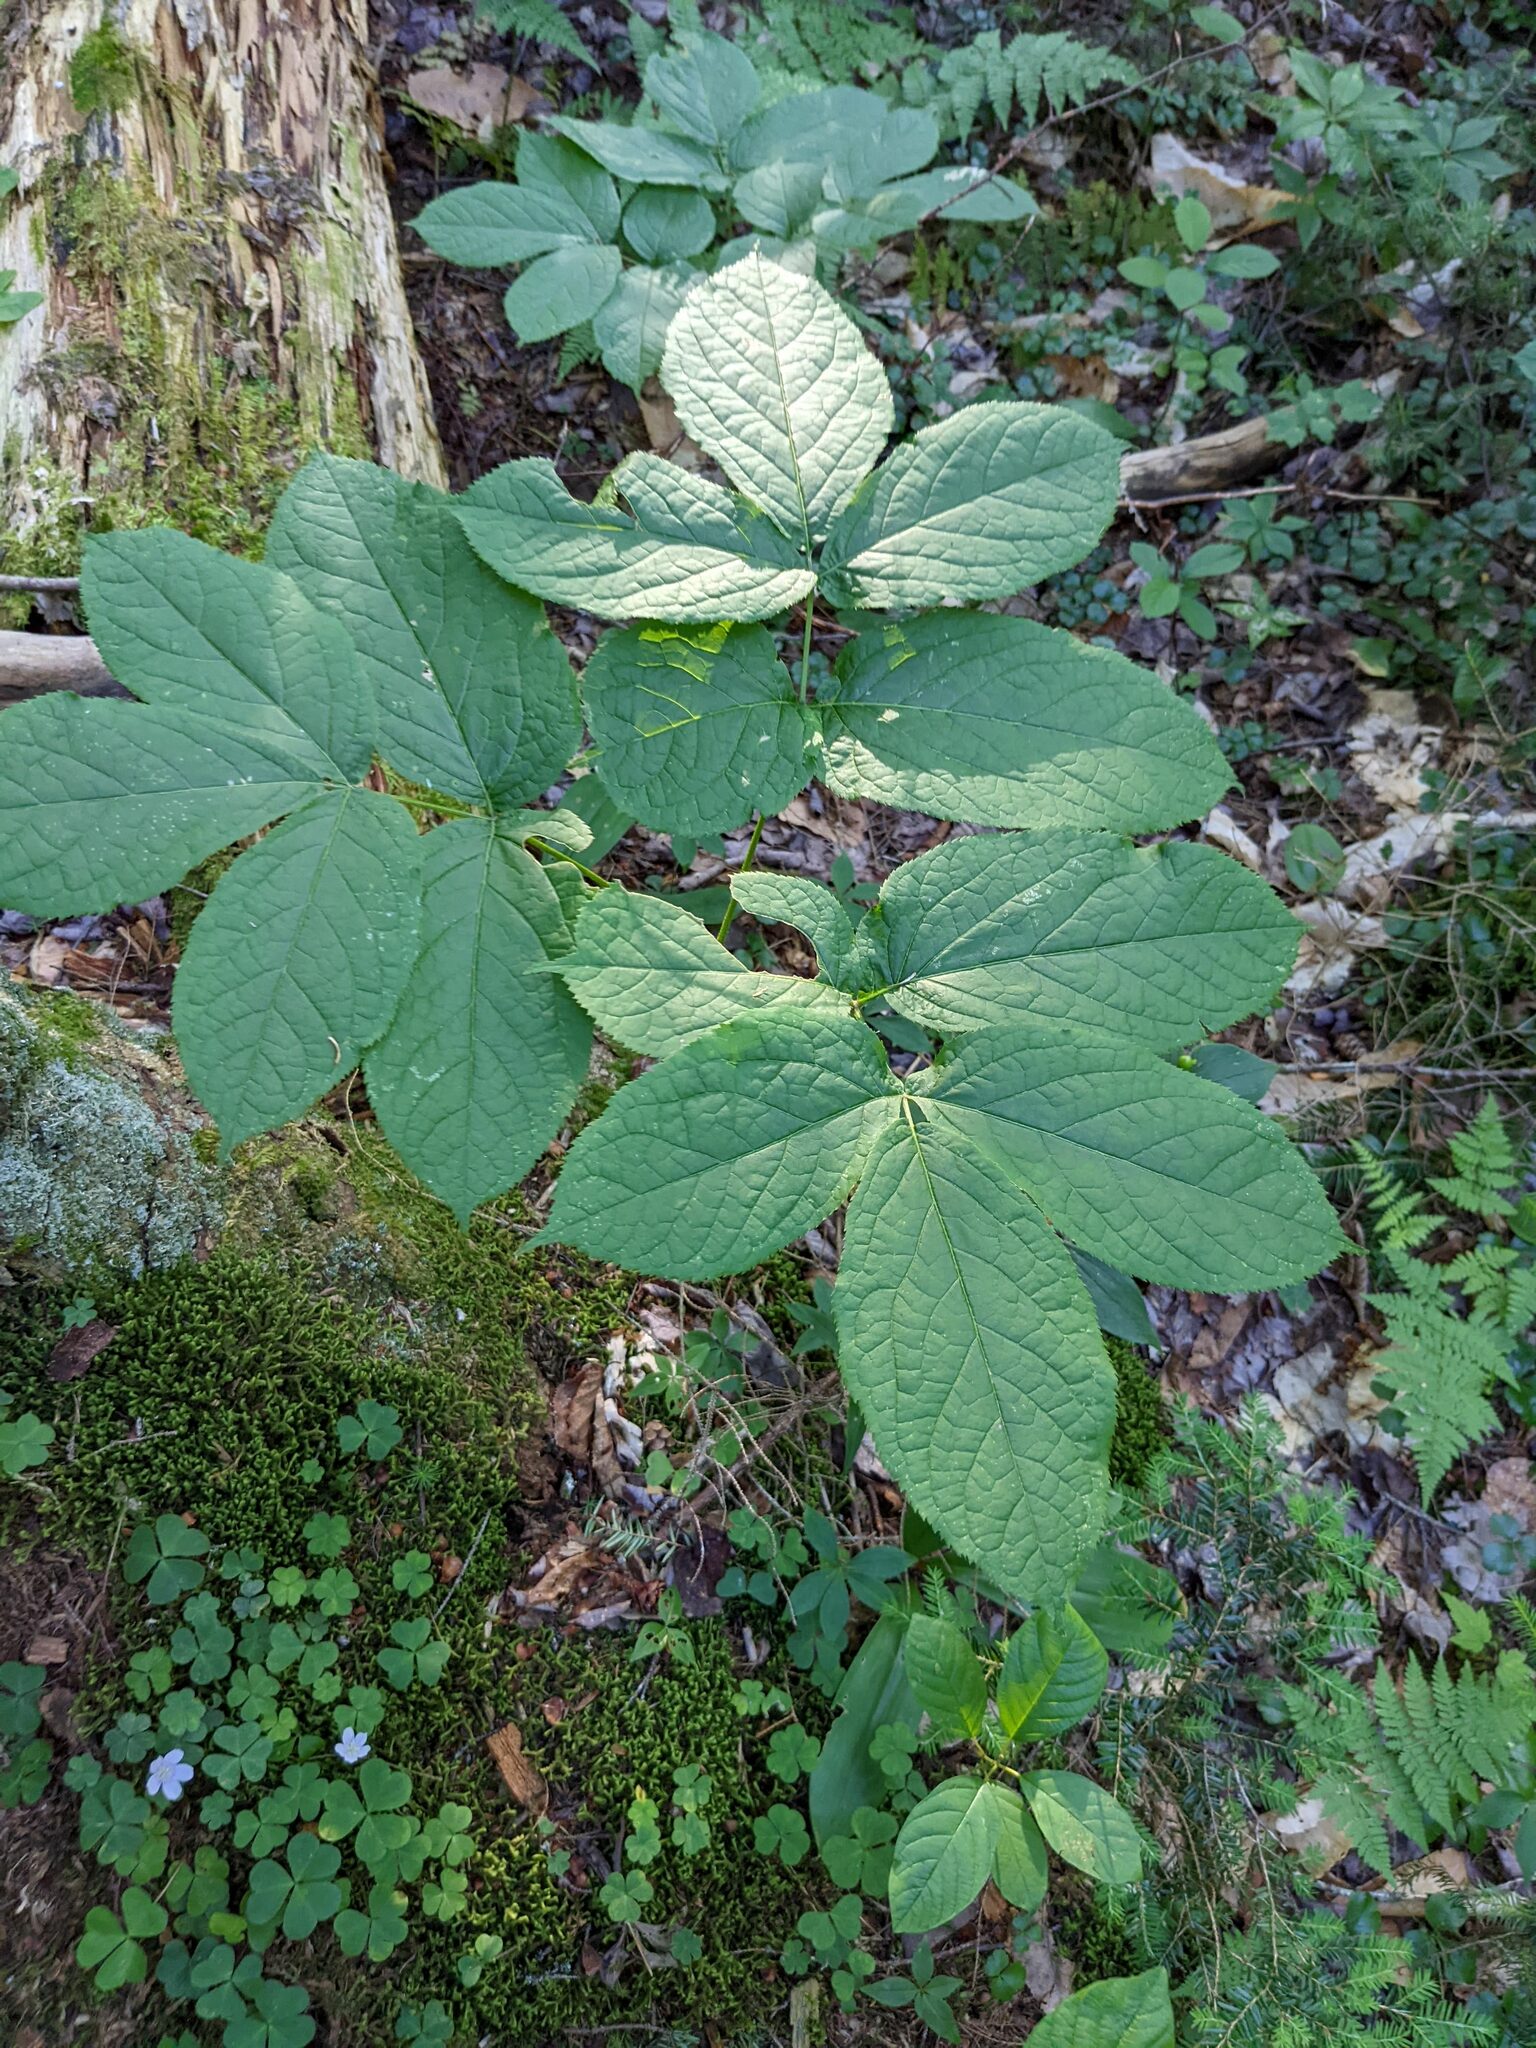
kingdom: Plantae
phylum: Tracheophyta
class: Magnoliopsida
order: Apiales
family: Araliaceae
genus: Aralia
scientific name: Aralia nudicaulis
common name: Wild sarsaparilla
